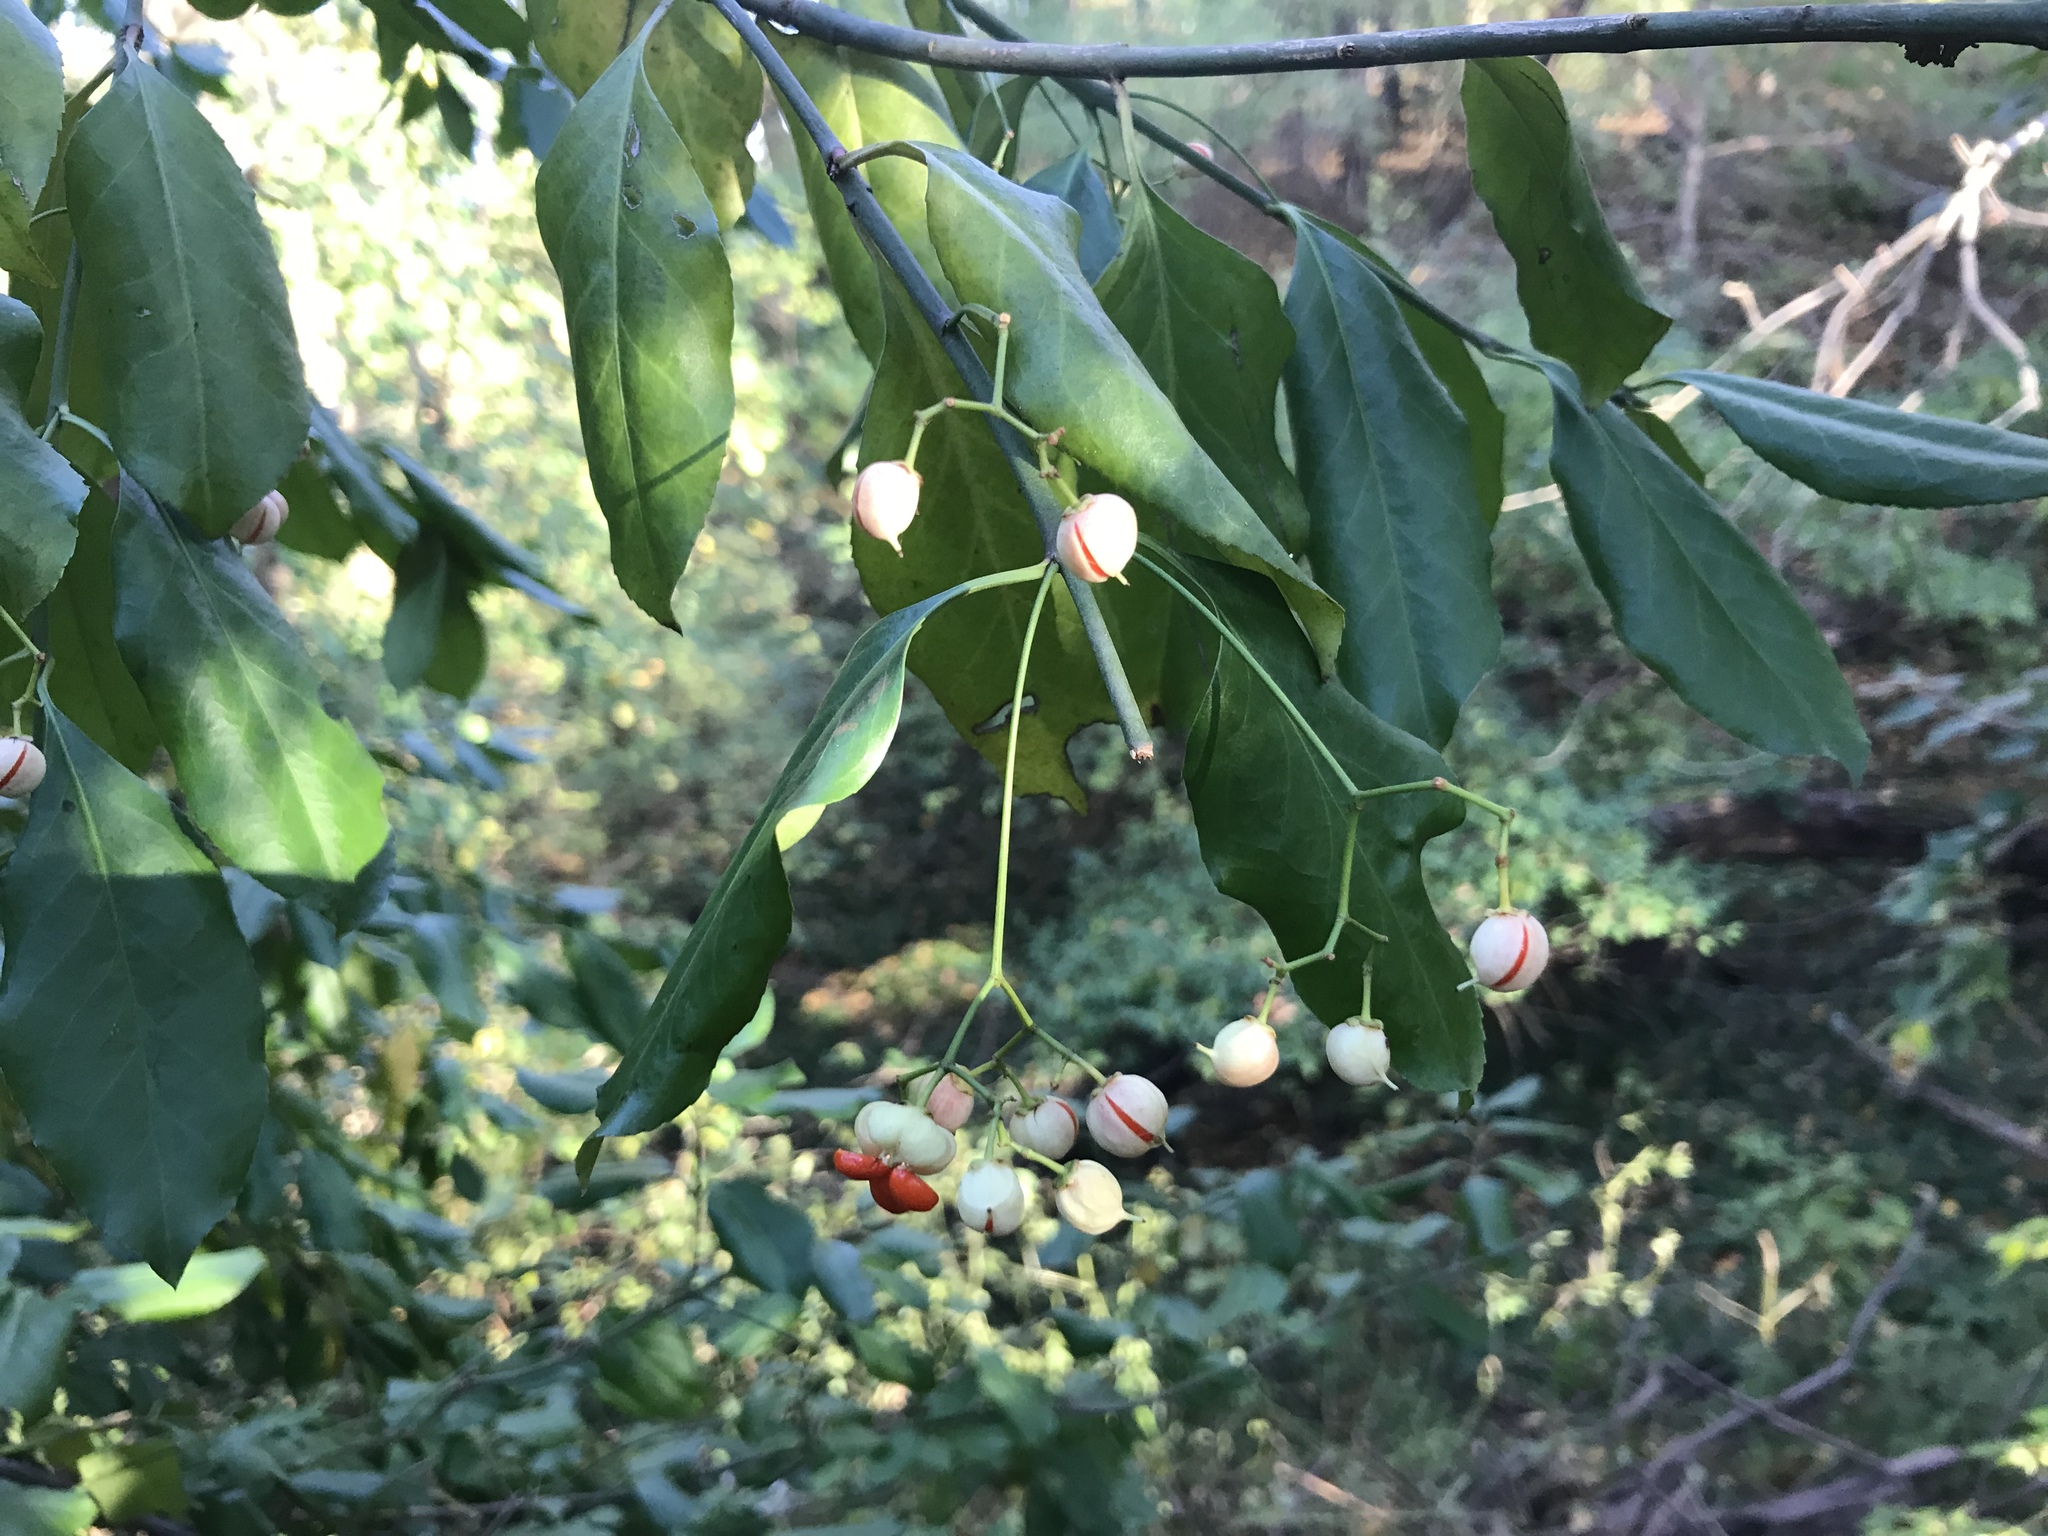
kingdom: Plantae
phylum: Tracheophyta
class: Magnoliopsida
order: Celastrales
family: Celastraceae
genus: Euonymus
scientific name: Euonymus fortunei
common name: Climbing euonymus
